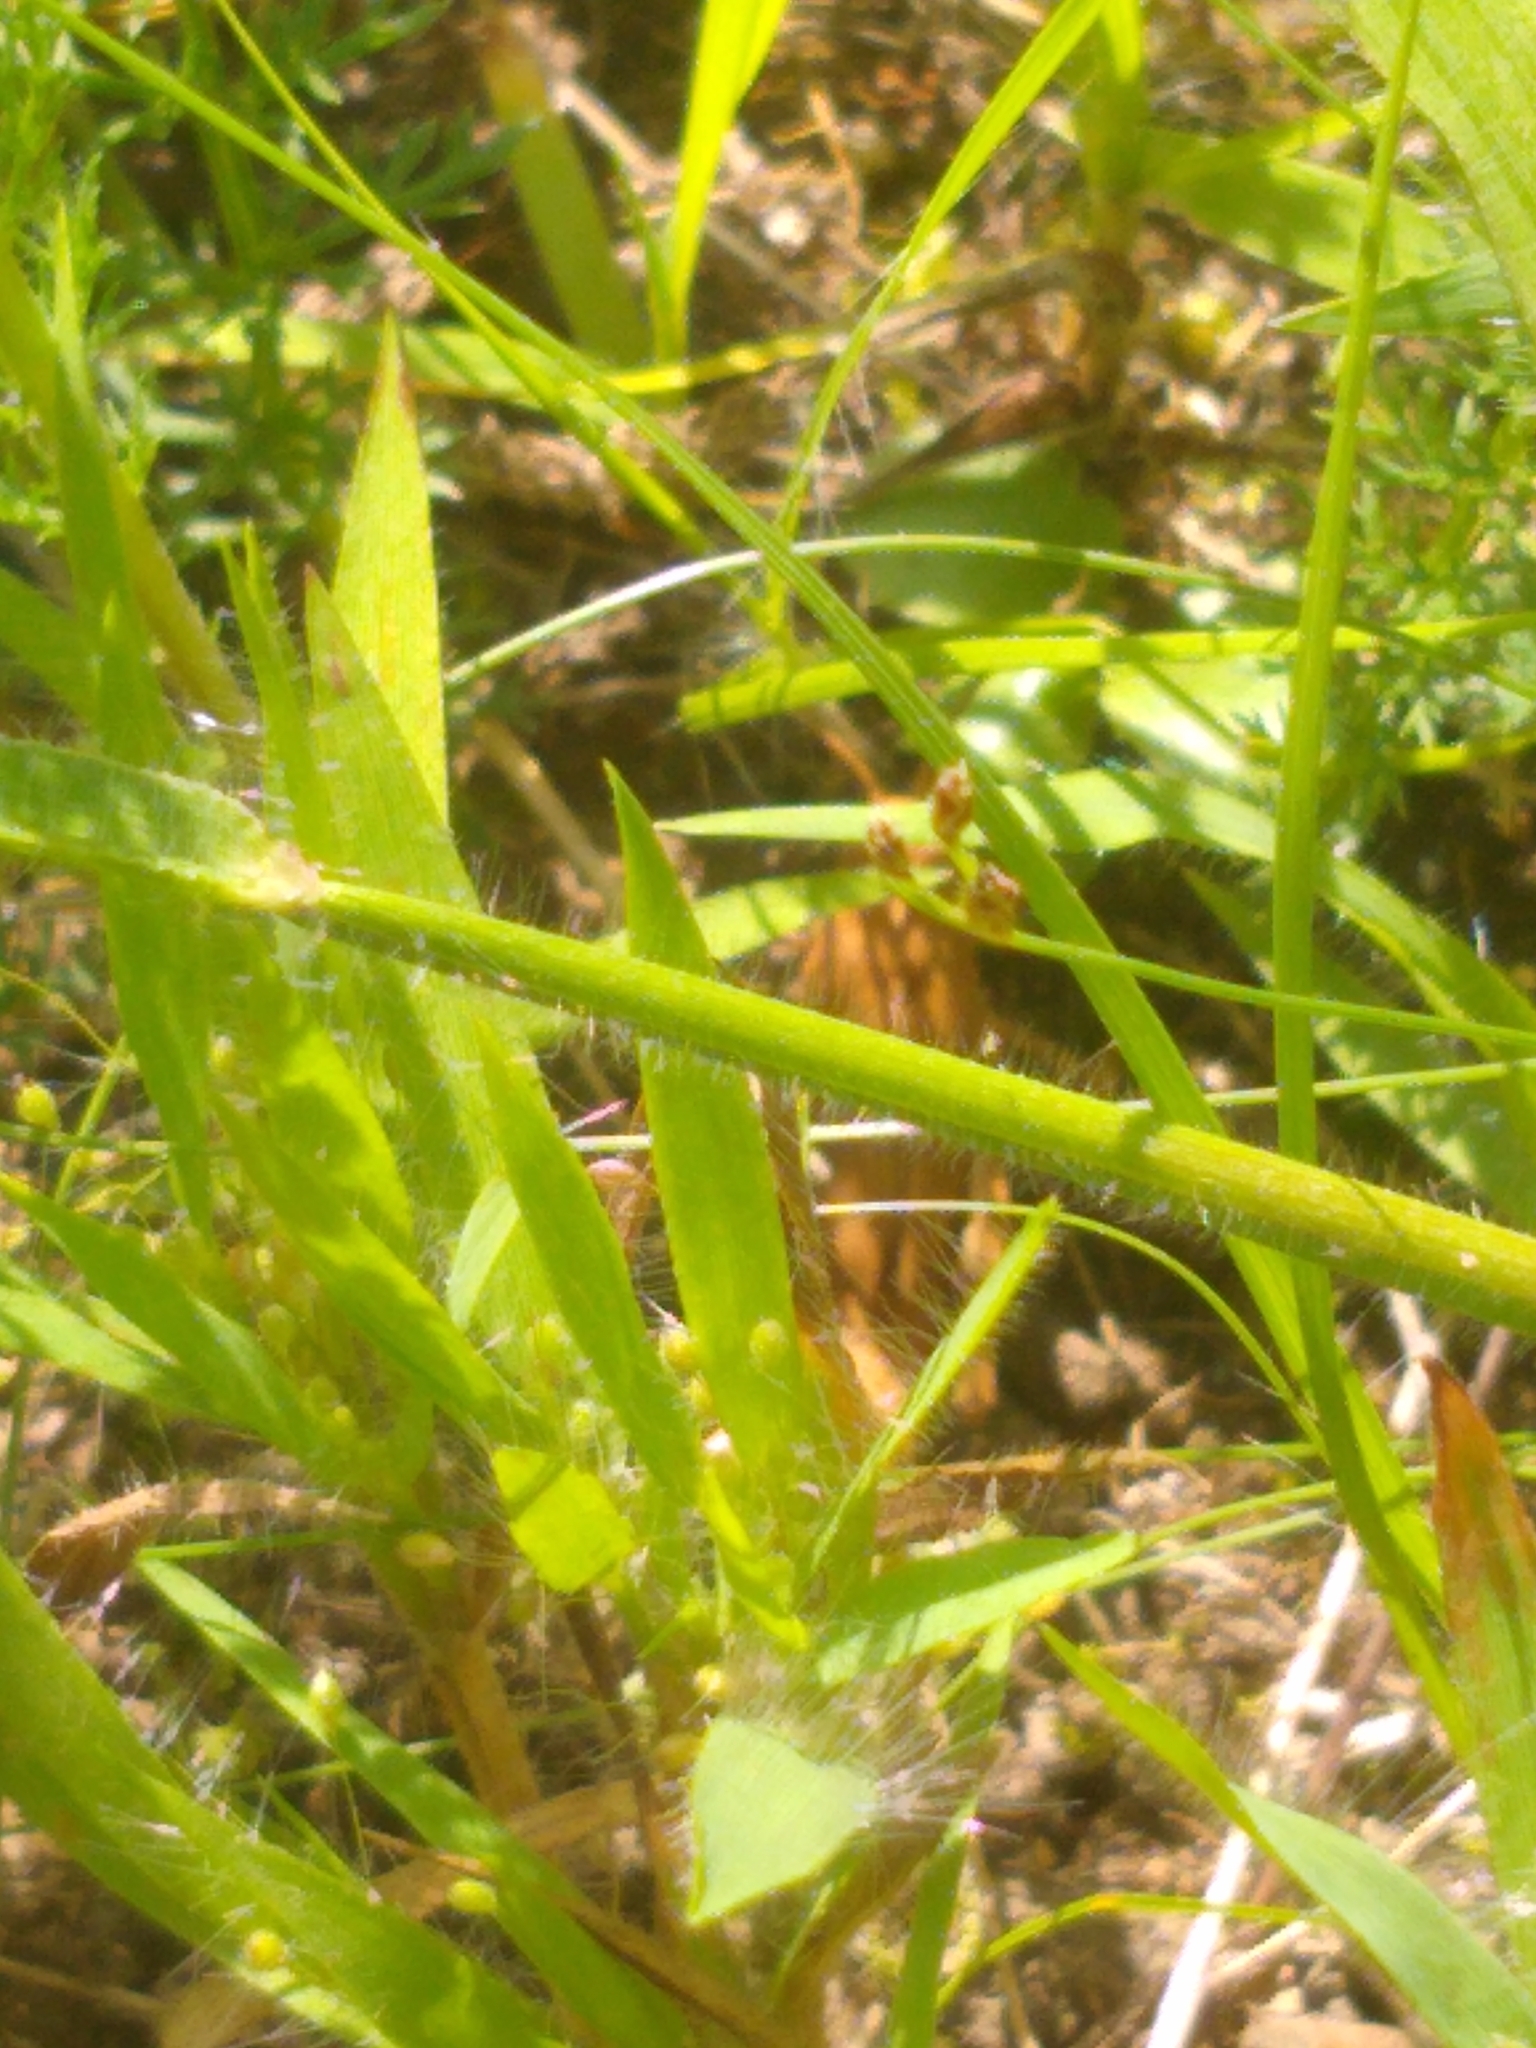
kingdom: Animalia
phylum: Arthropoda
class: Insecta
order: Orthoptera
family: Acrididae
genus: Dissosteira
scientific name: Dissosteira carolina
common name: Carolina grasshopper
